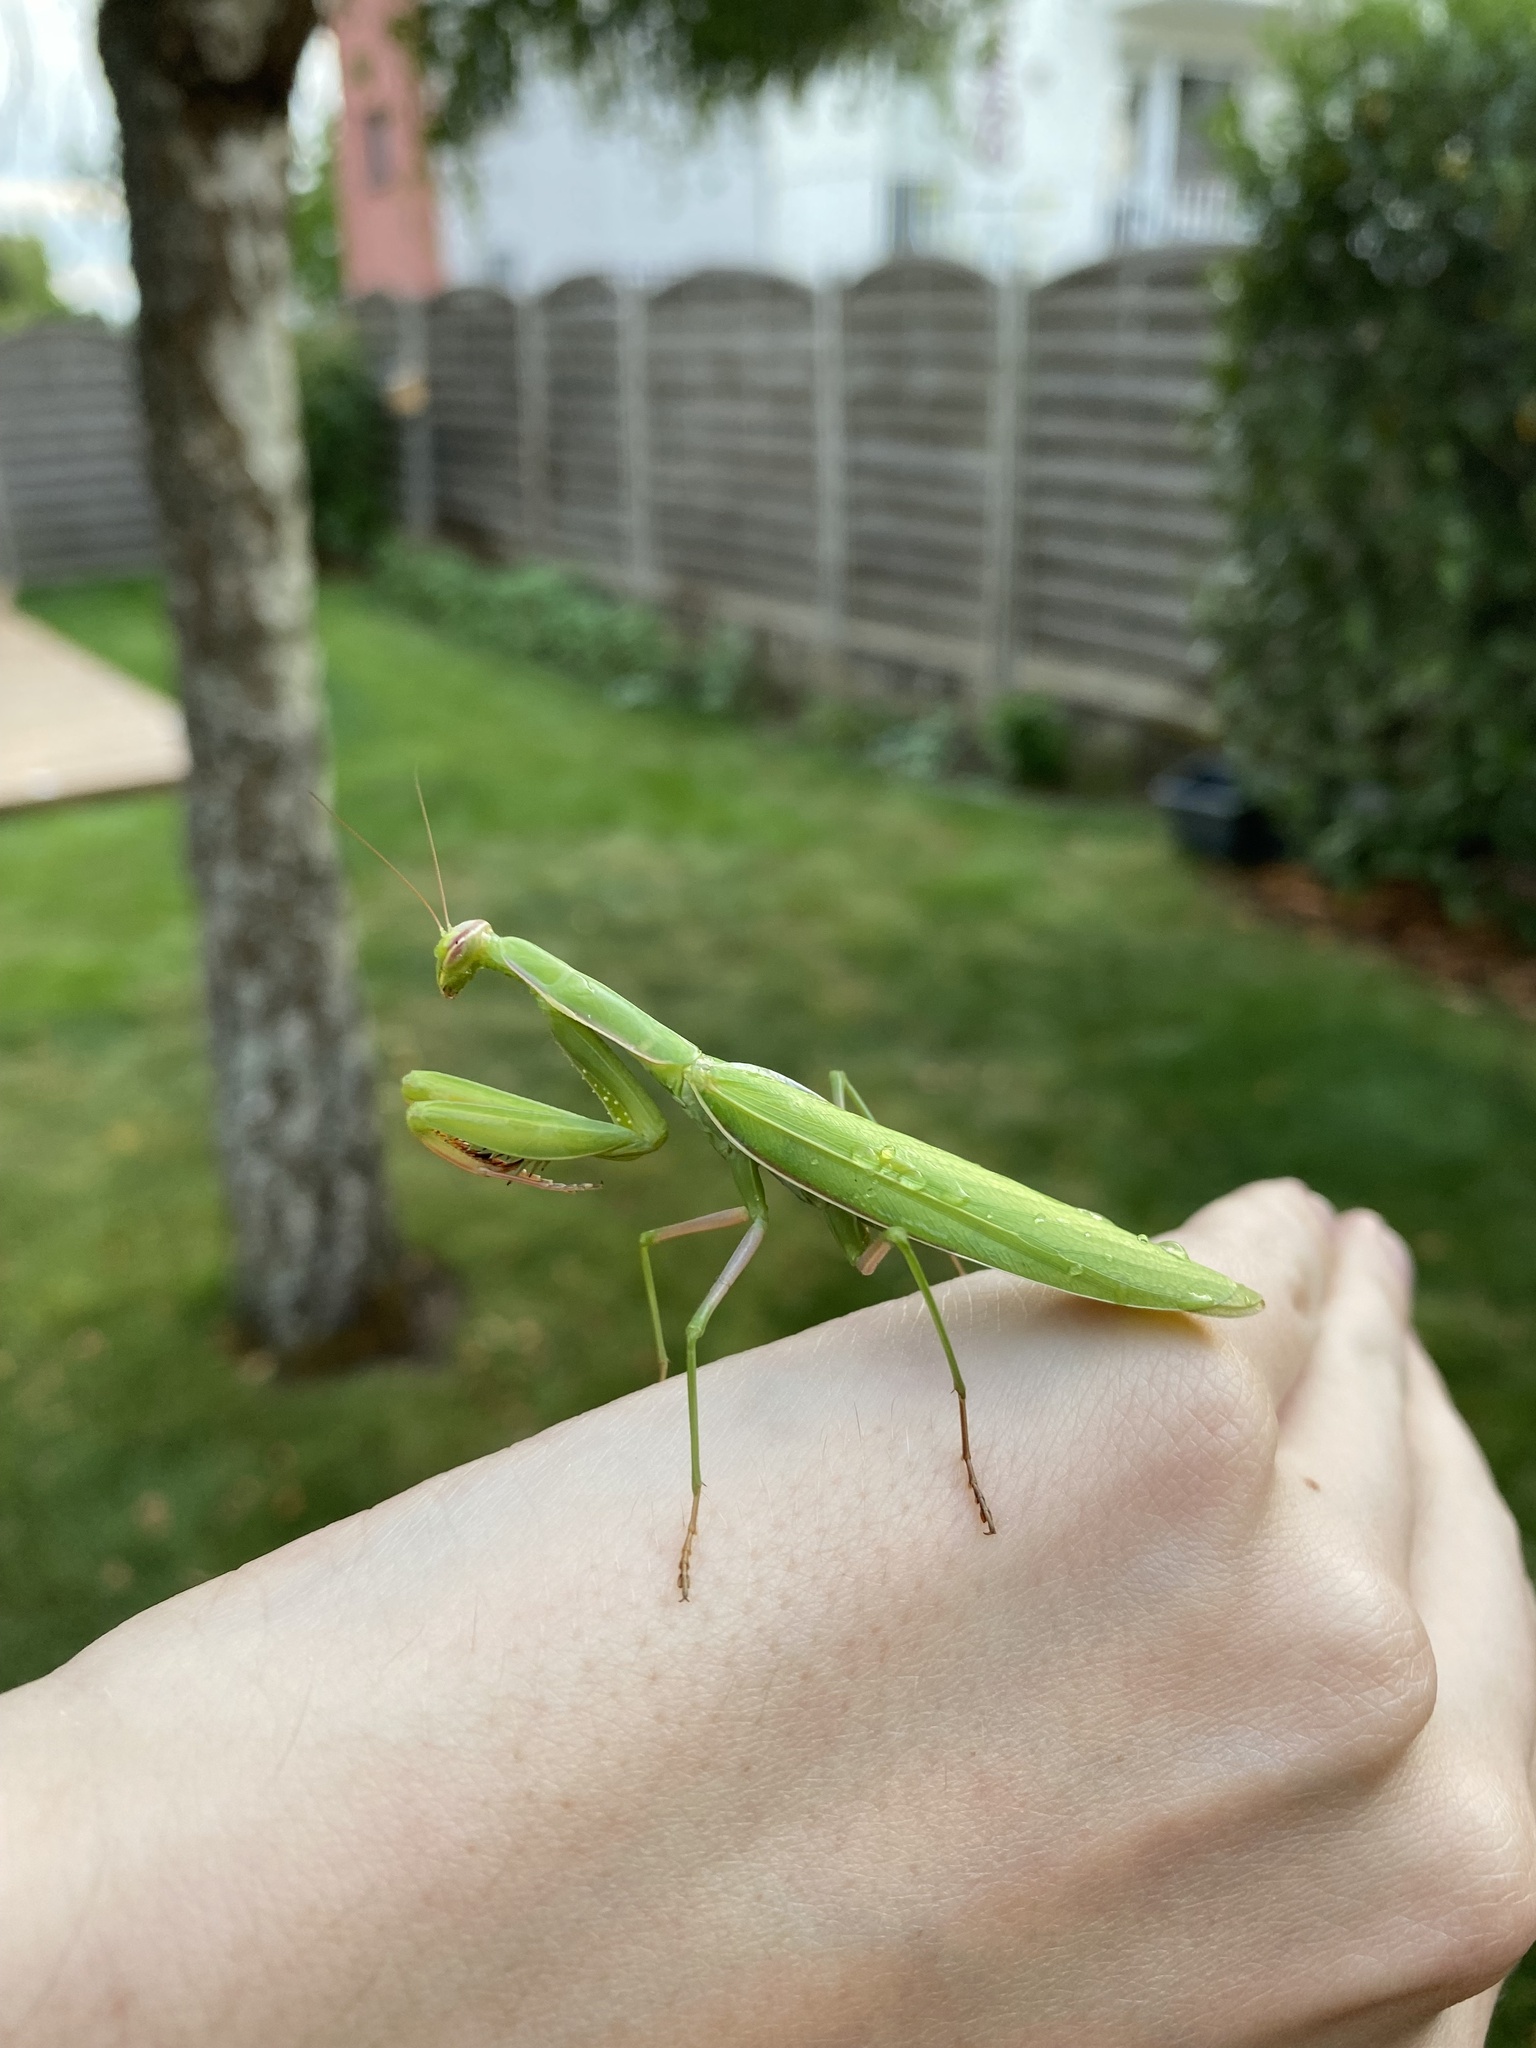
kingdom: Animalia
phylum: Arthropoda
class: Insecta
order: Mantodea
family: Mantidae
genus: Mantis
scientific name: Mantis religiosa
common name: Praying mantis
